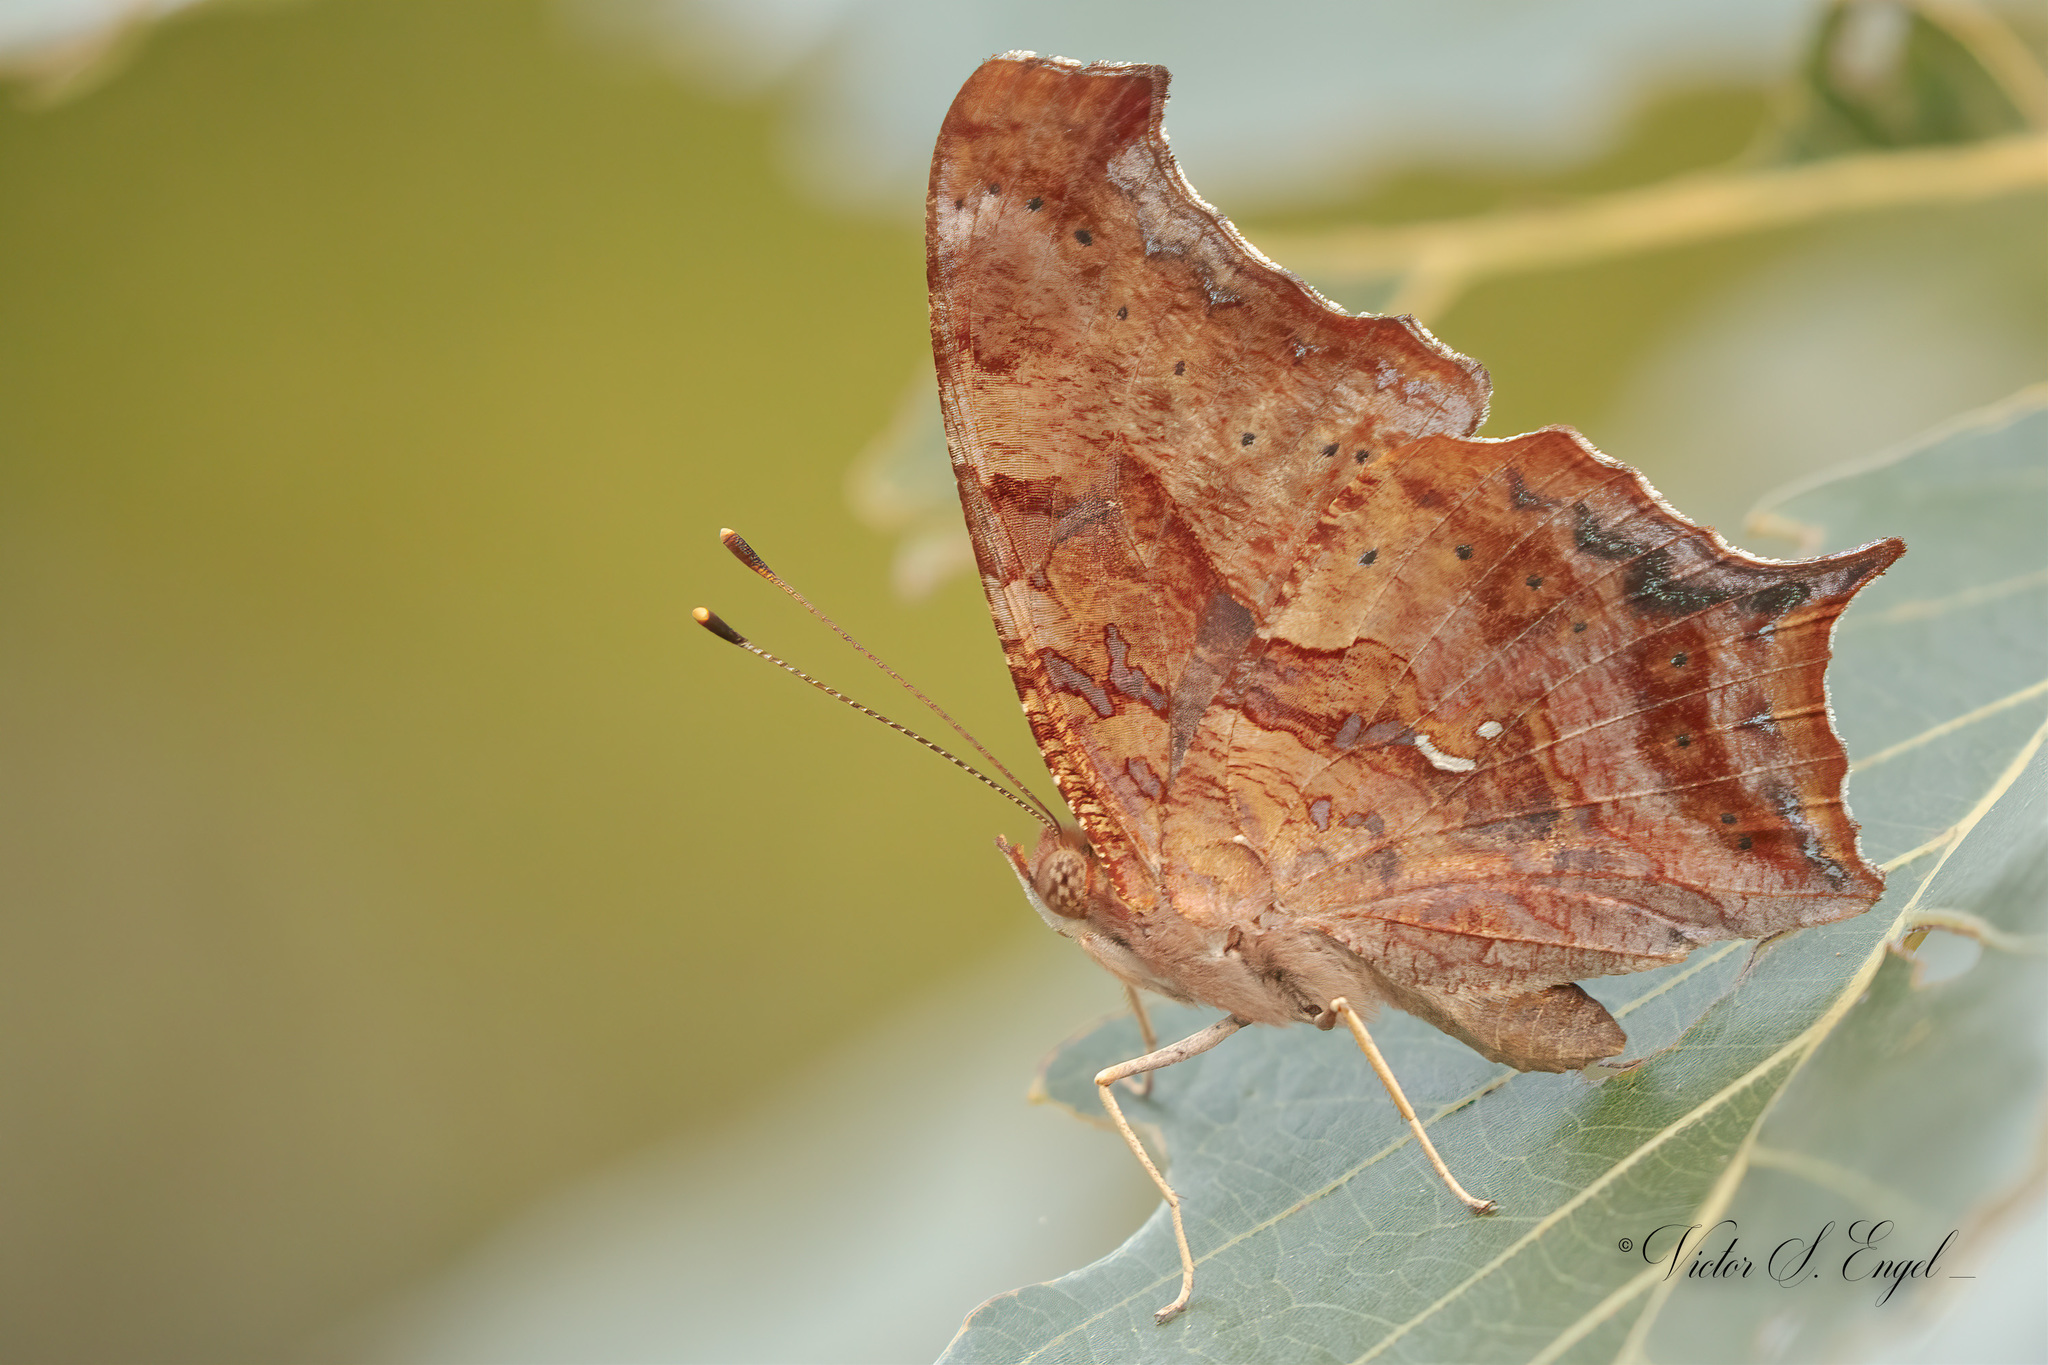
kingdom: Animalia
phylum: Arthropoda
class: Insecta
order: Lepidoptera
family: Nymphalidae
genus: Polygonia
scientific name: Polygonia interrogationis
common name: Question mark
